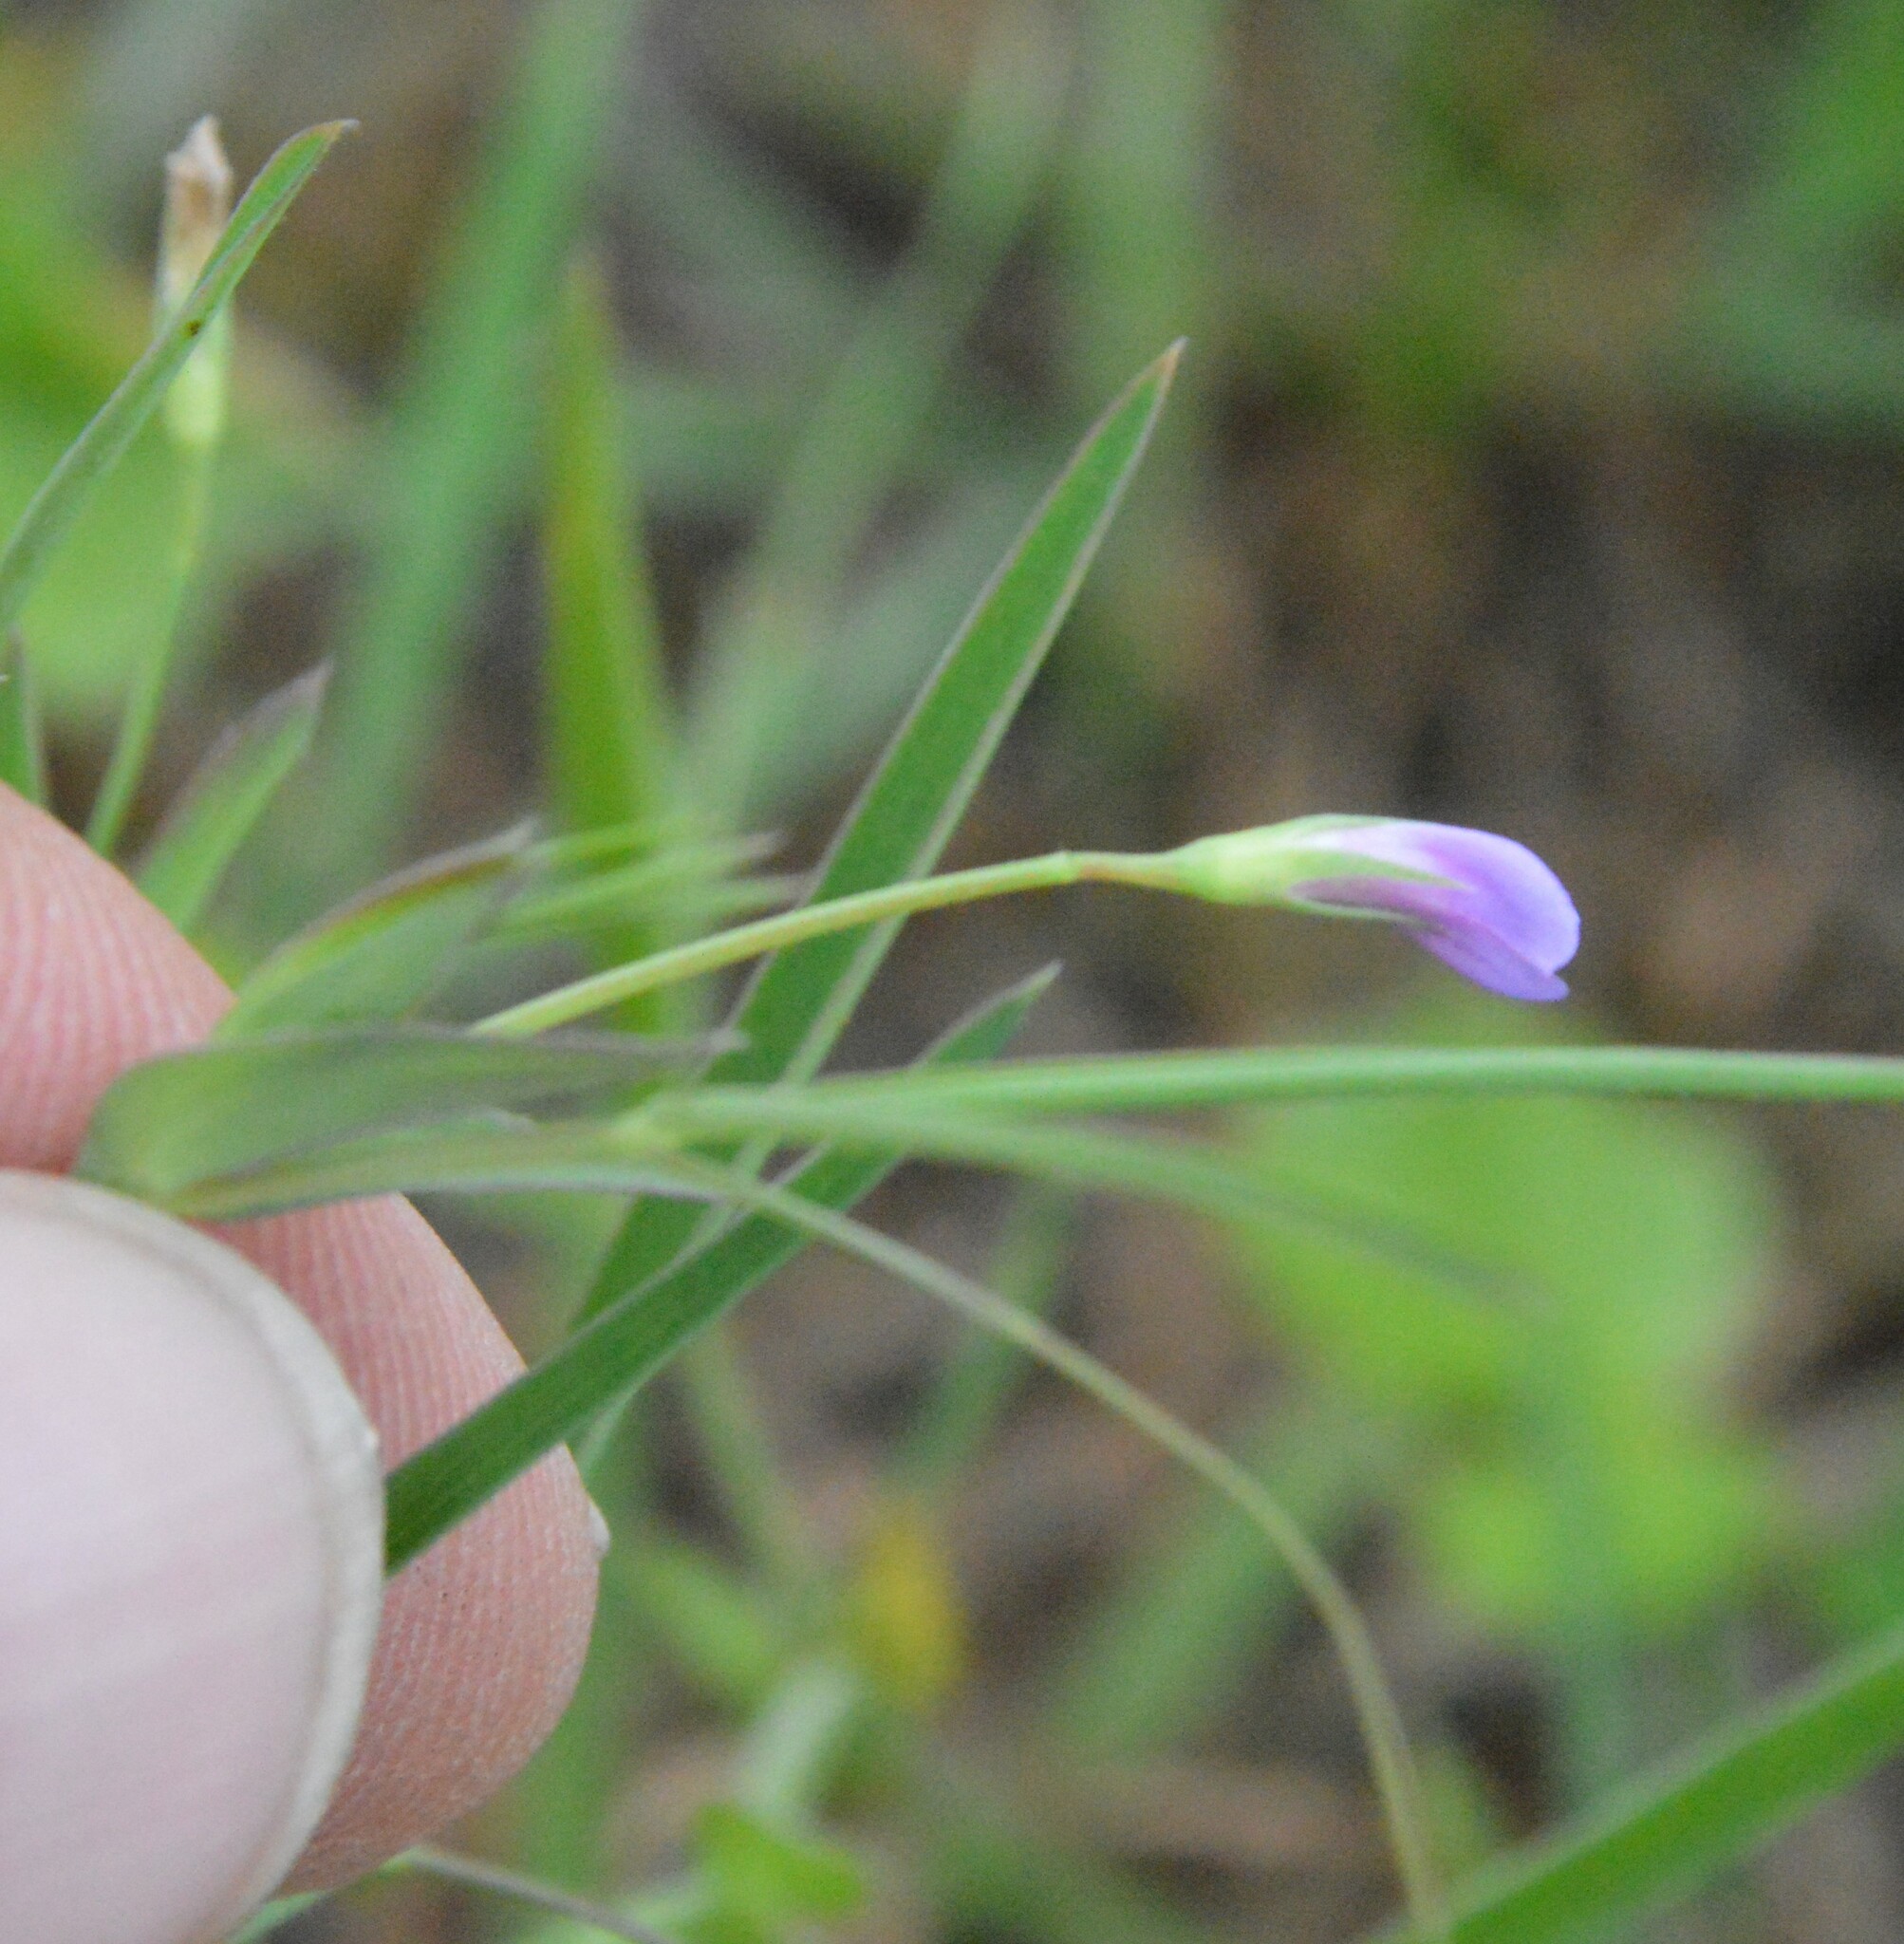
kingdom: Plantae
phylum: Tracheophyta
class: Magnoliopsida
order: Fabales
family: Fabaceae
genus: Lathyrus
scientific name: Lathyrus pusillus
